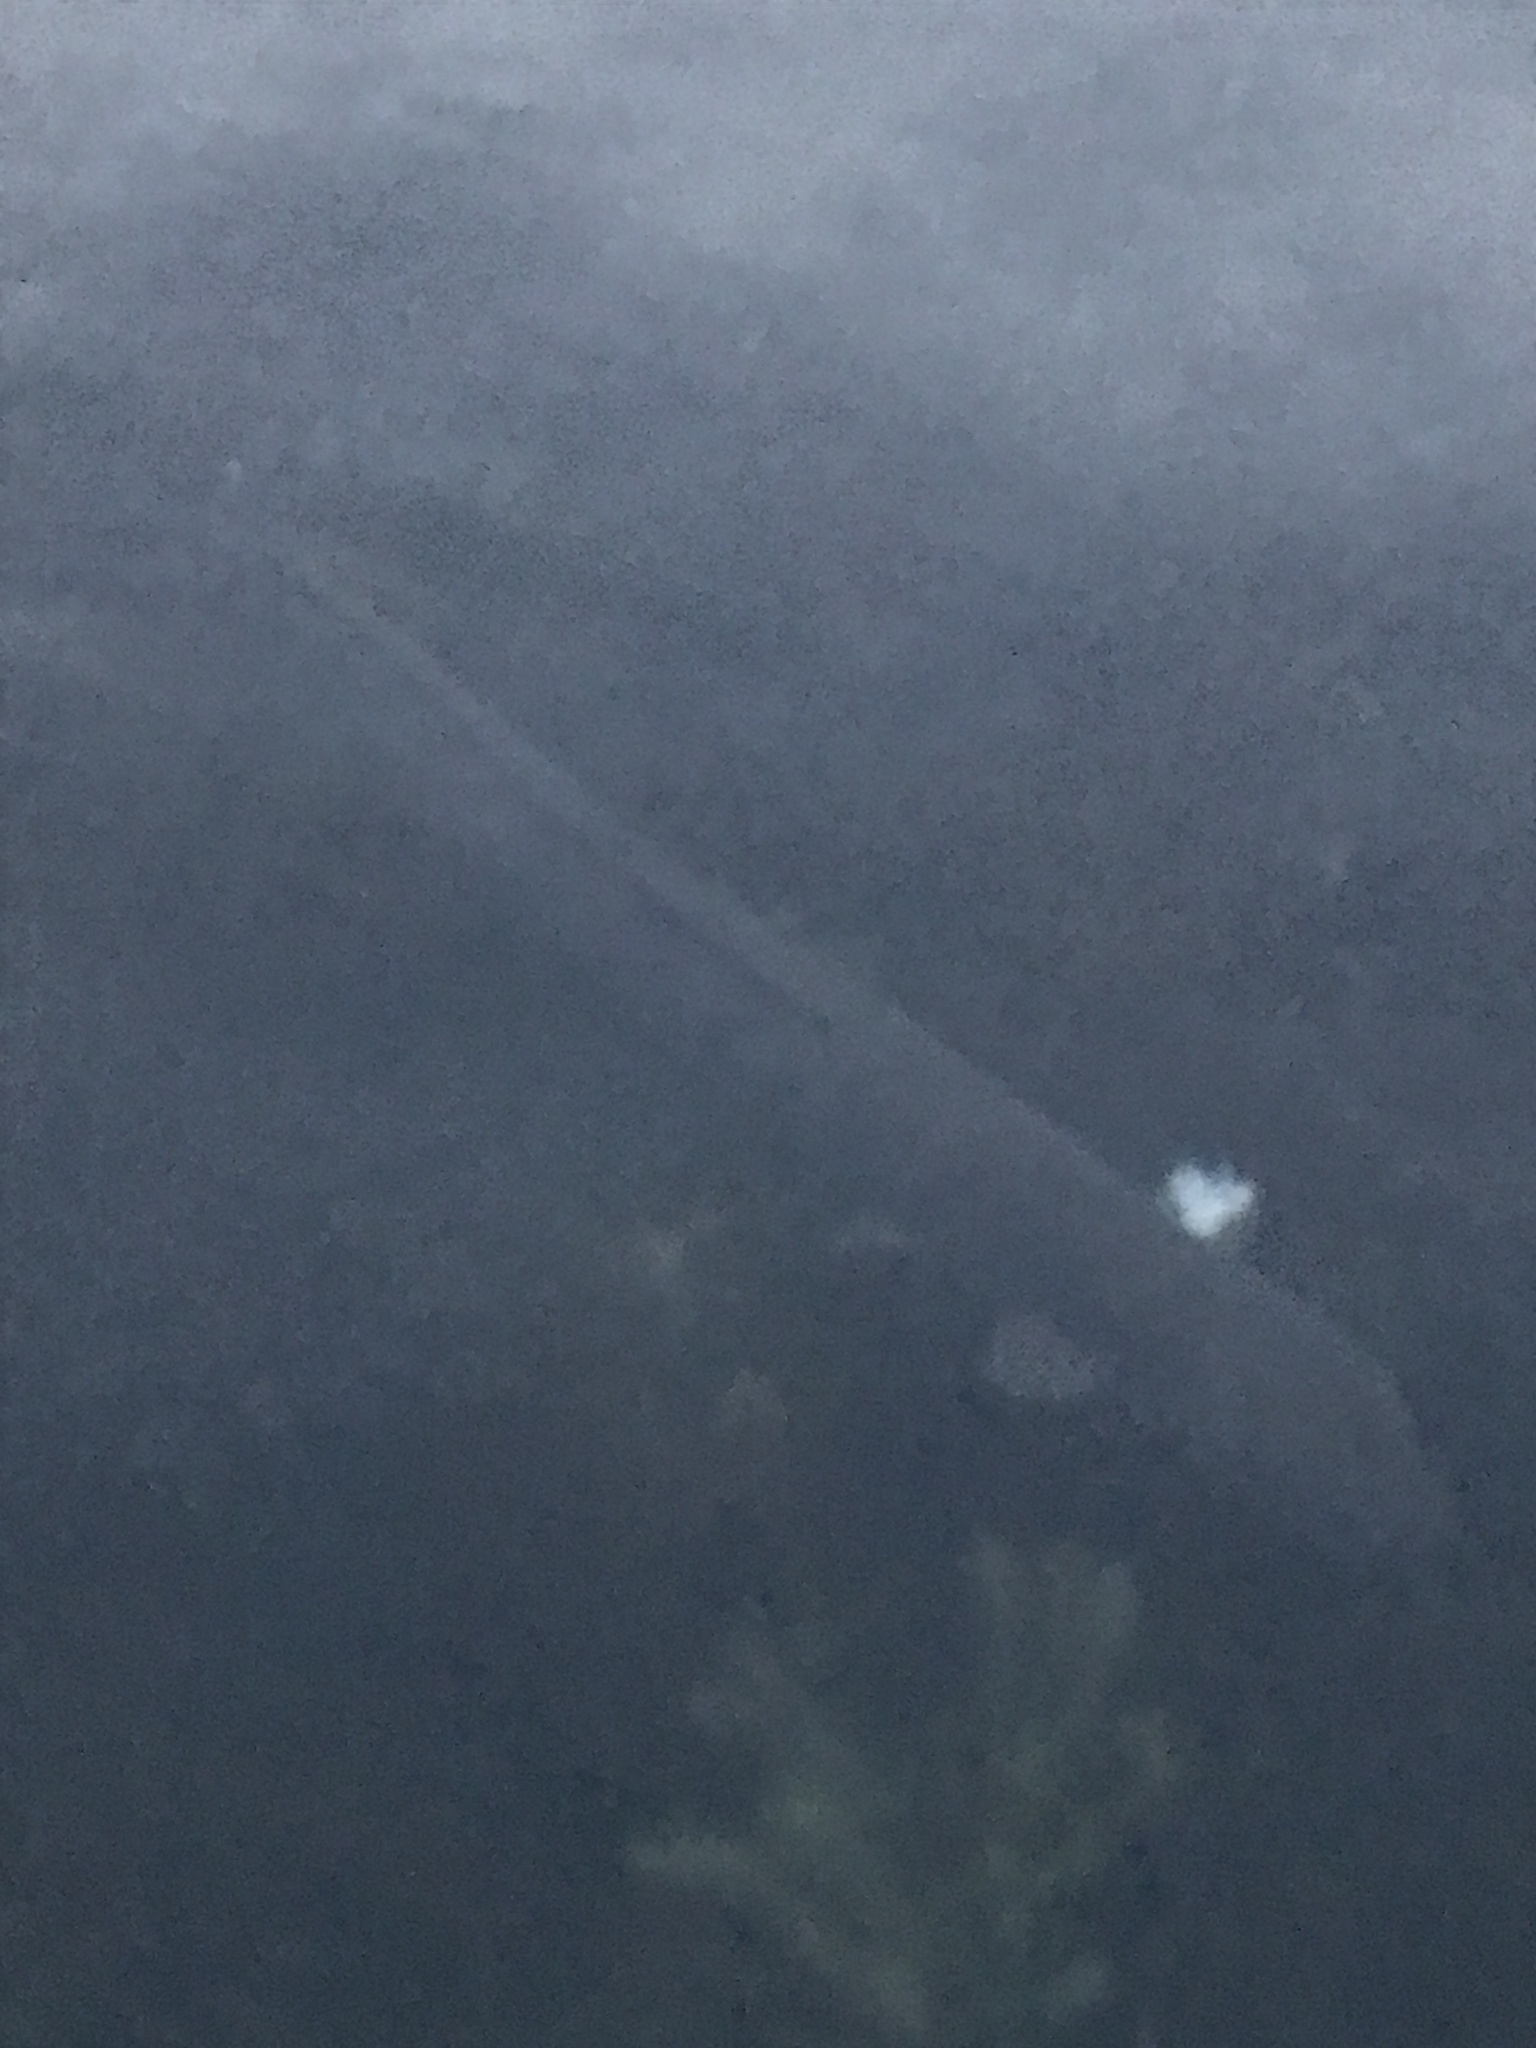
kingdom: Animalia
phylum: Chordata
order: Anguilliformes
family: Anguillidae
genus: Anguilla
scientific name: Anguilla dieffenbachii
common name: New zealand longfin eel
